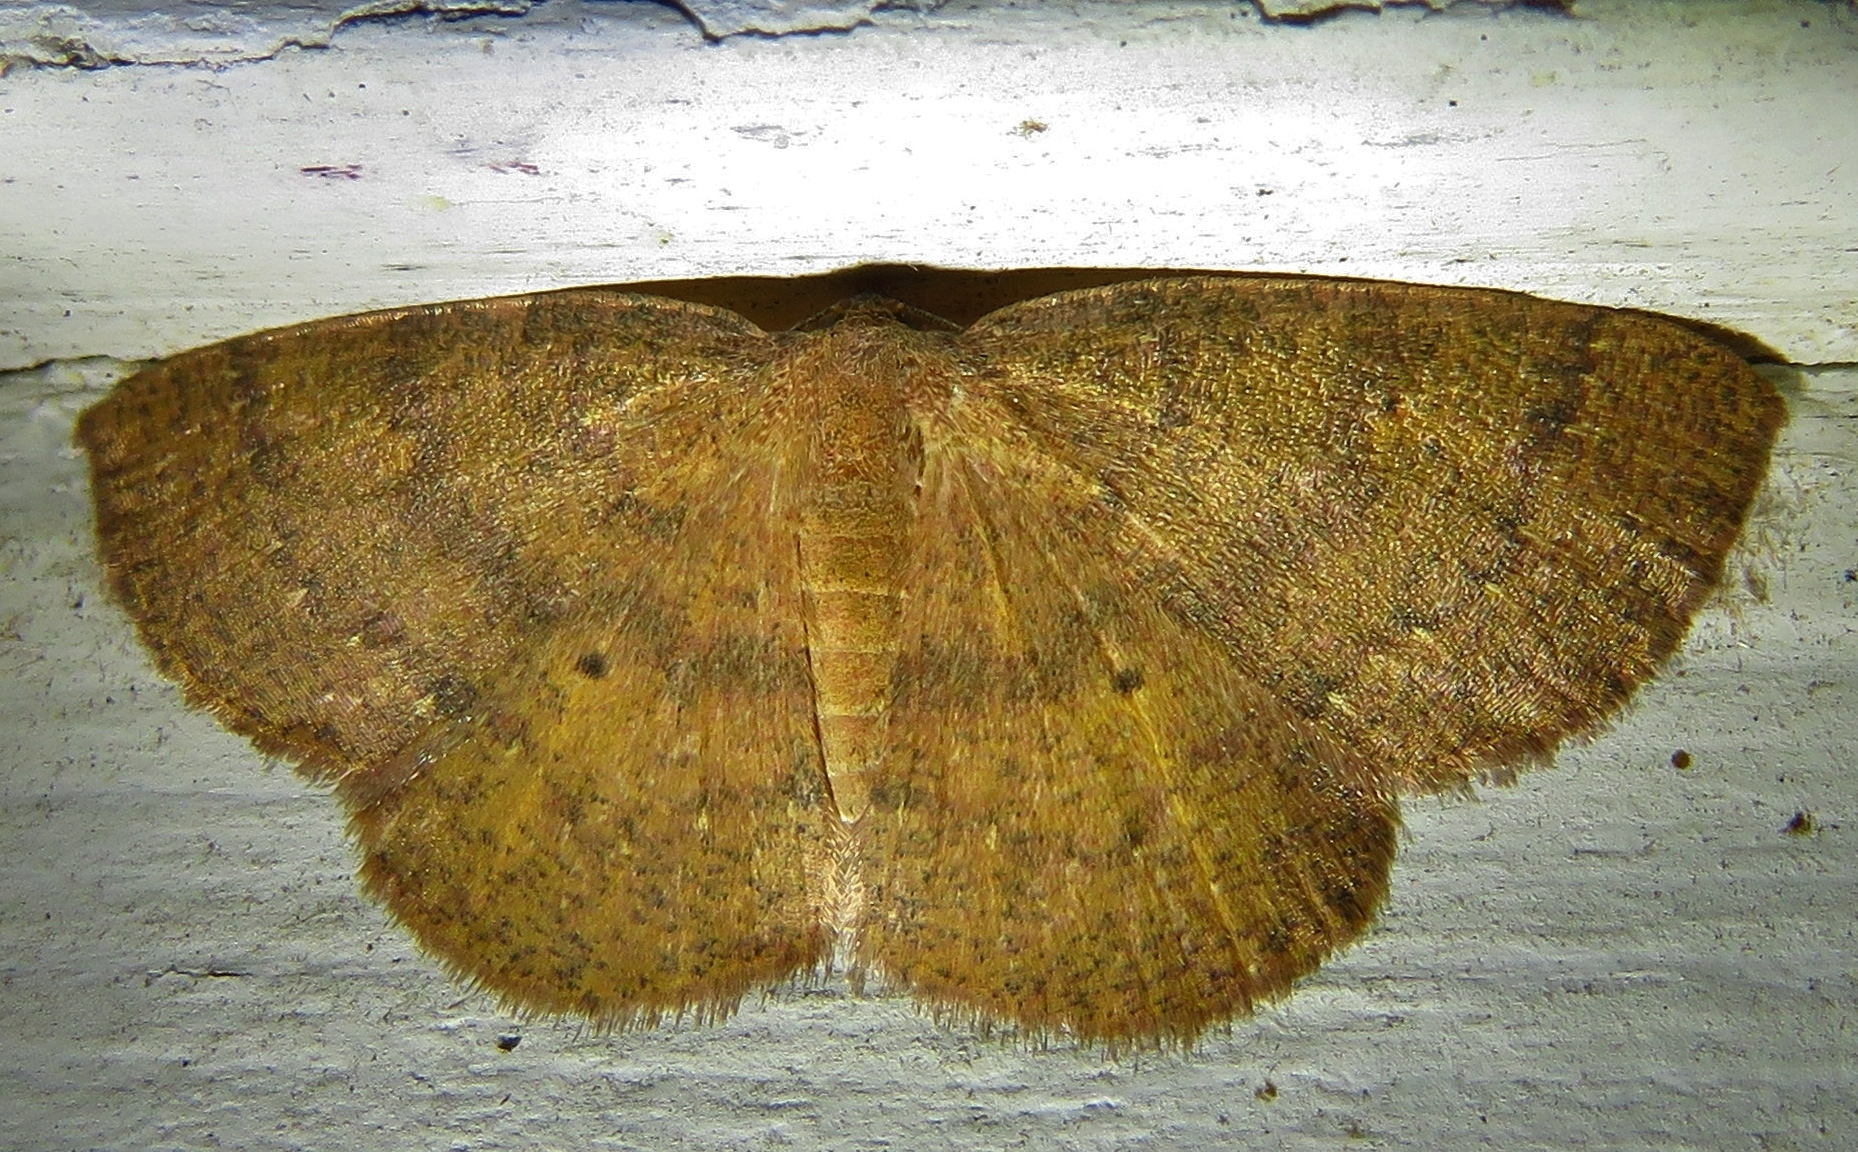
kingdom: Animalia
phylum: Arthropoda
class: Insecta
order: Lepidoptera
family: Geometridae
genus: Ilexia
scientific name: Ilexia intractata
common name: Black-dotted ruddy moth
